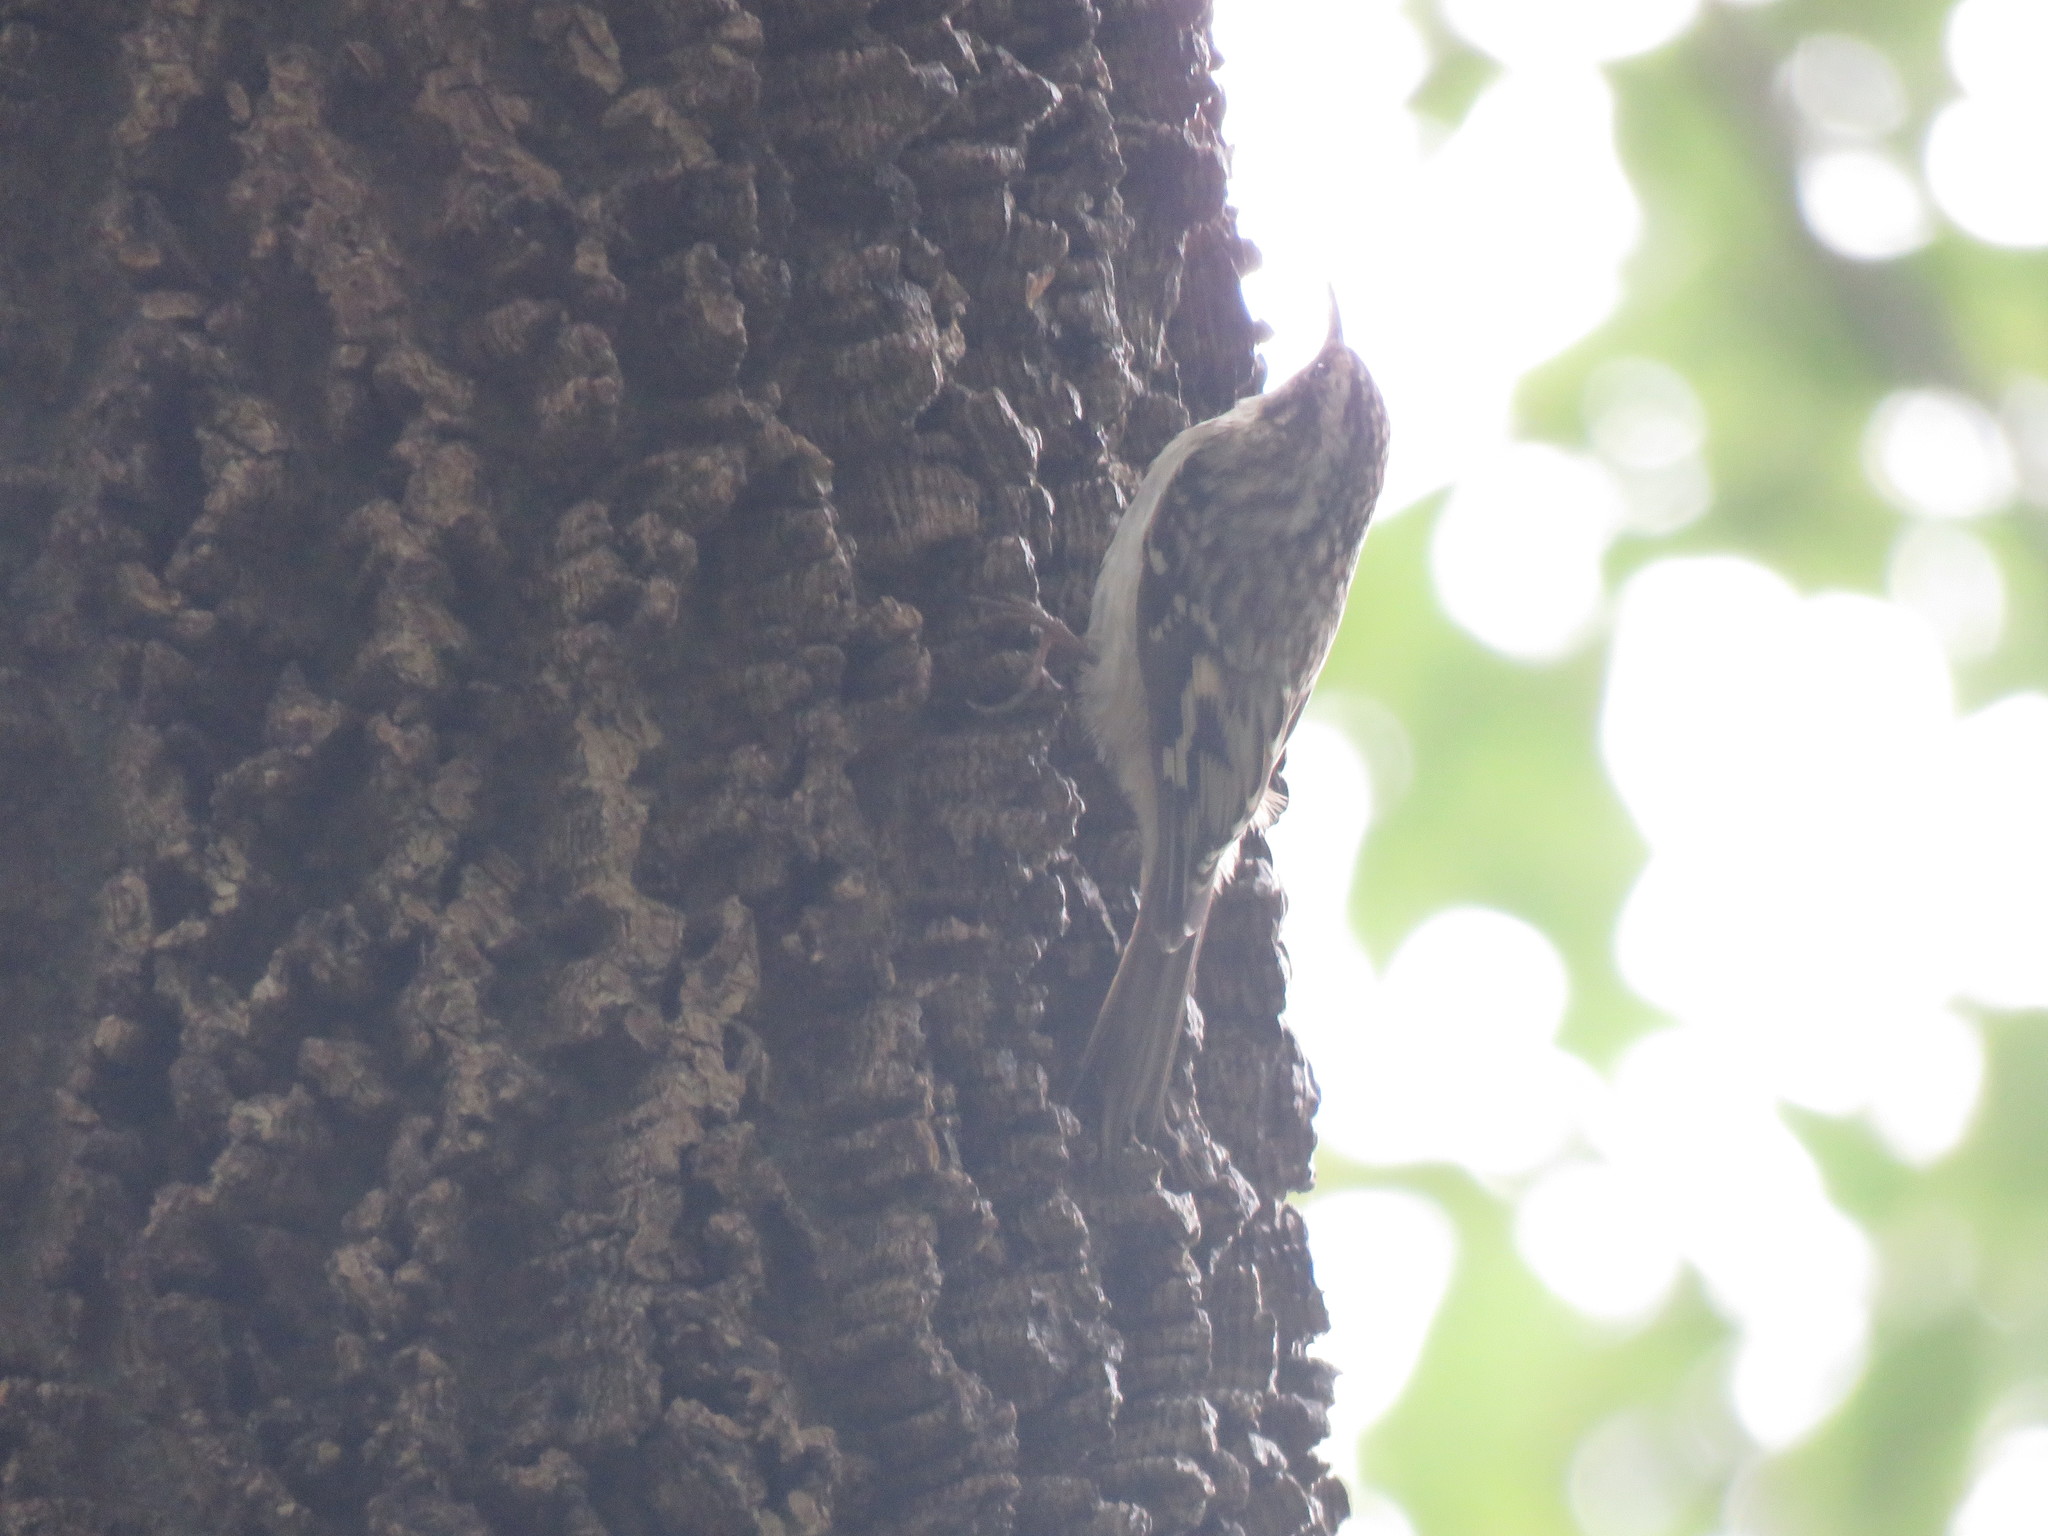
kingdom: Animalia
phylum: Chordata
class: Aves
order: Passeriformes
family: Certhiidae
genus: Certhia
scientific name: Certhia americana
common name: Brown creeper
